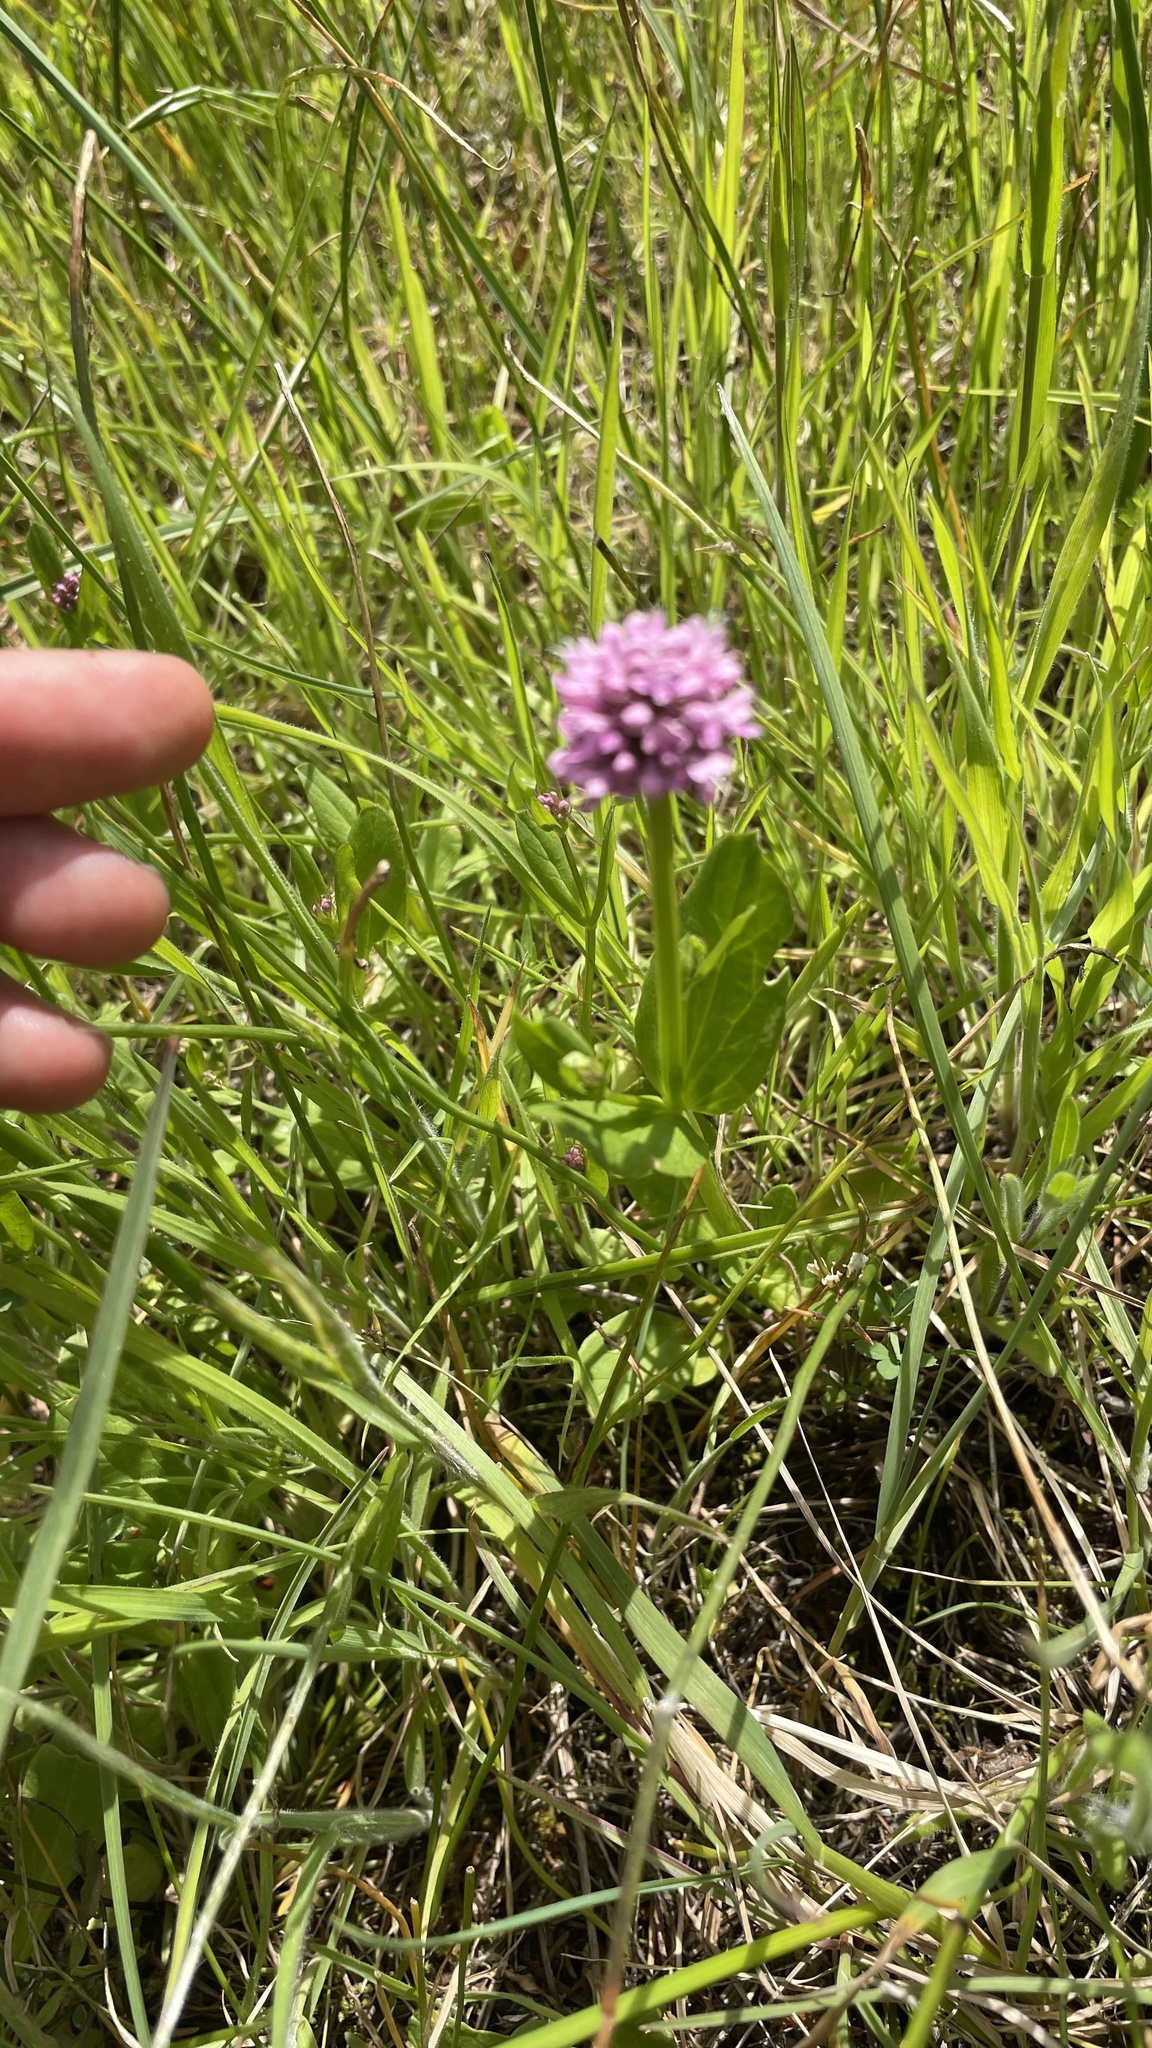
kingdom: Plantae
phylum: Tracheophyta
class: Magnoliopsida
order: Dipsacales
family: Caprifoliaceae
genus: Plectritis
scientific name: Plectritis congesta
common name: Pink plectritis
